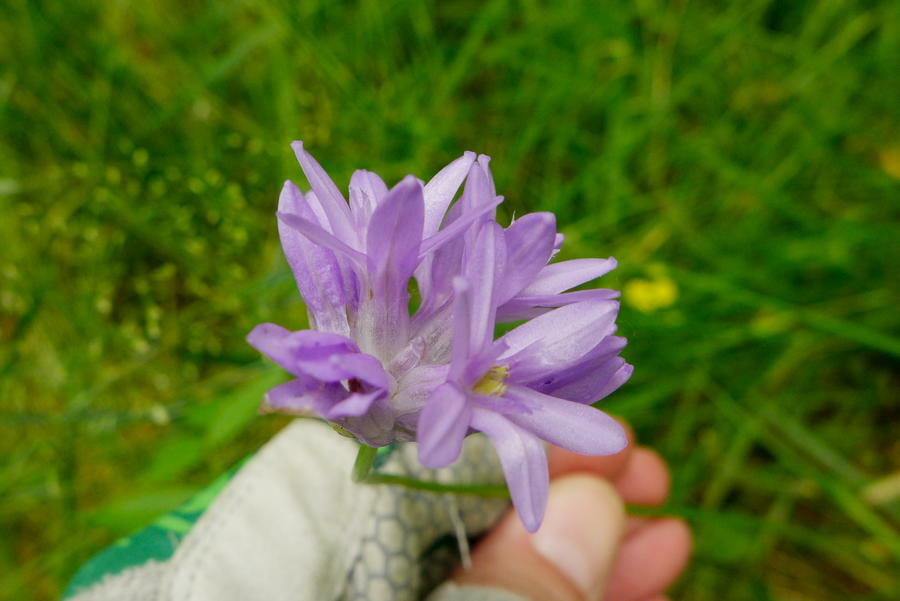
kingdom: Plantae
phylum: Tracheophyta
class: Liliopsida
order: Asparagales
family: Asparagaceae
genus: Dichelostemma
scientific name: Dichelostemma congestum
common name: Fork-tooth ookow
